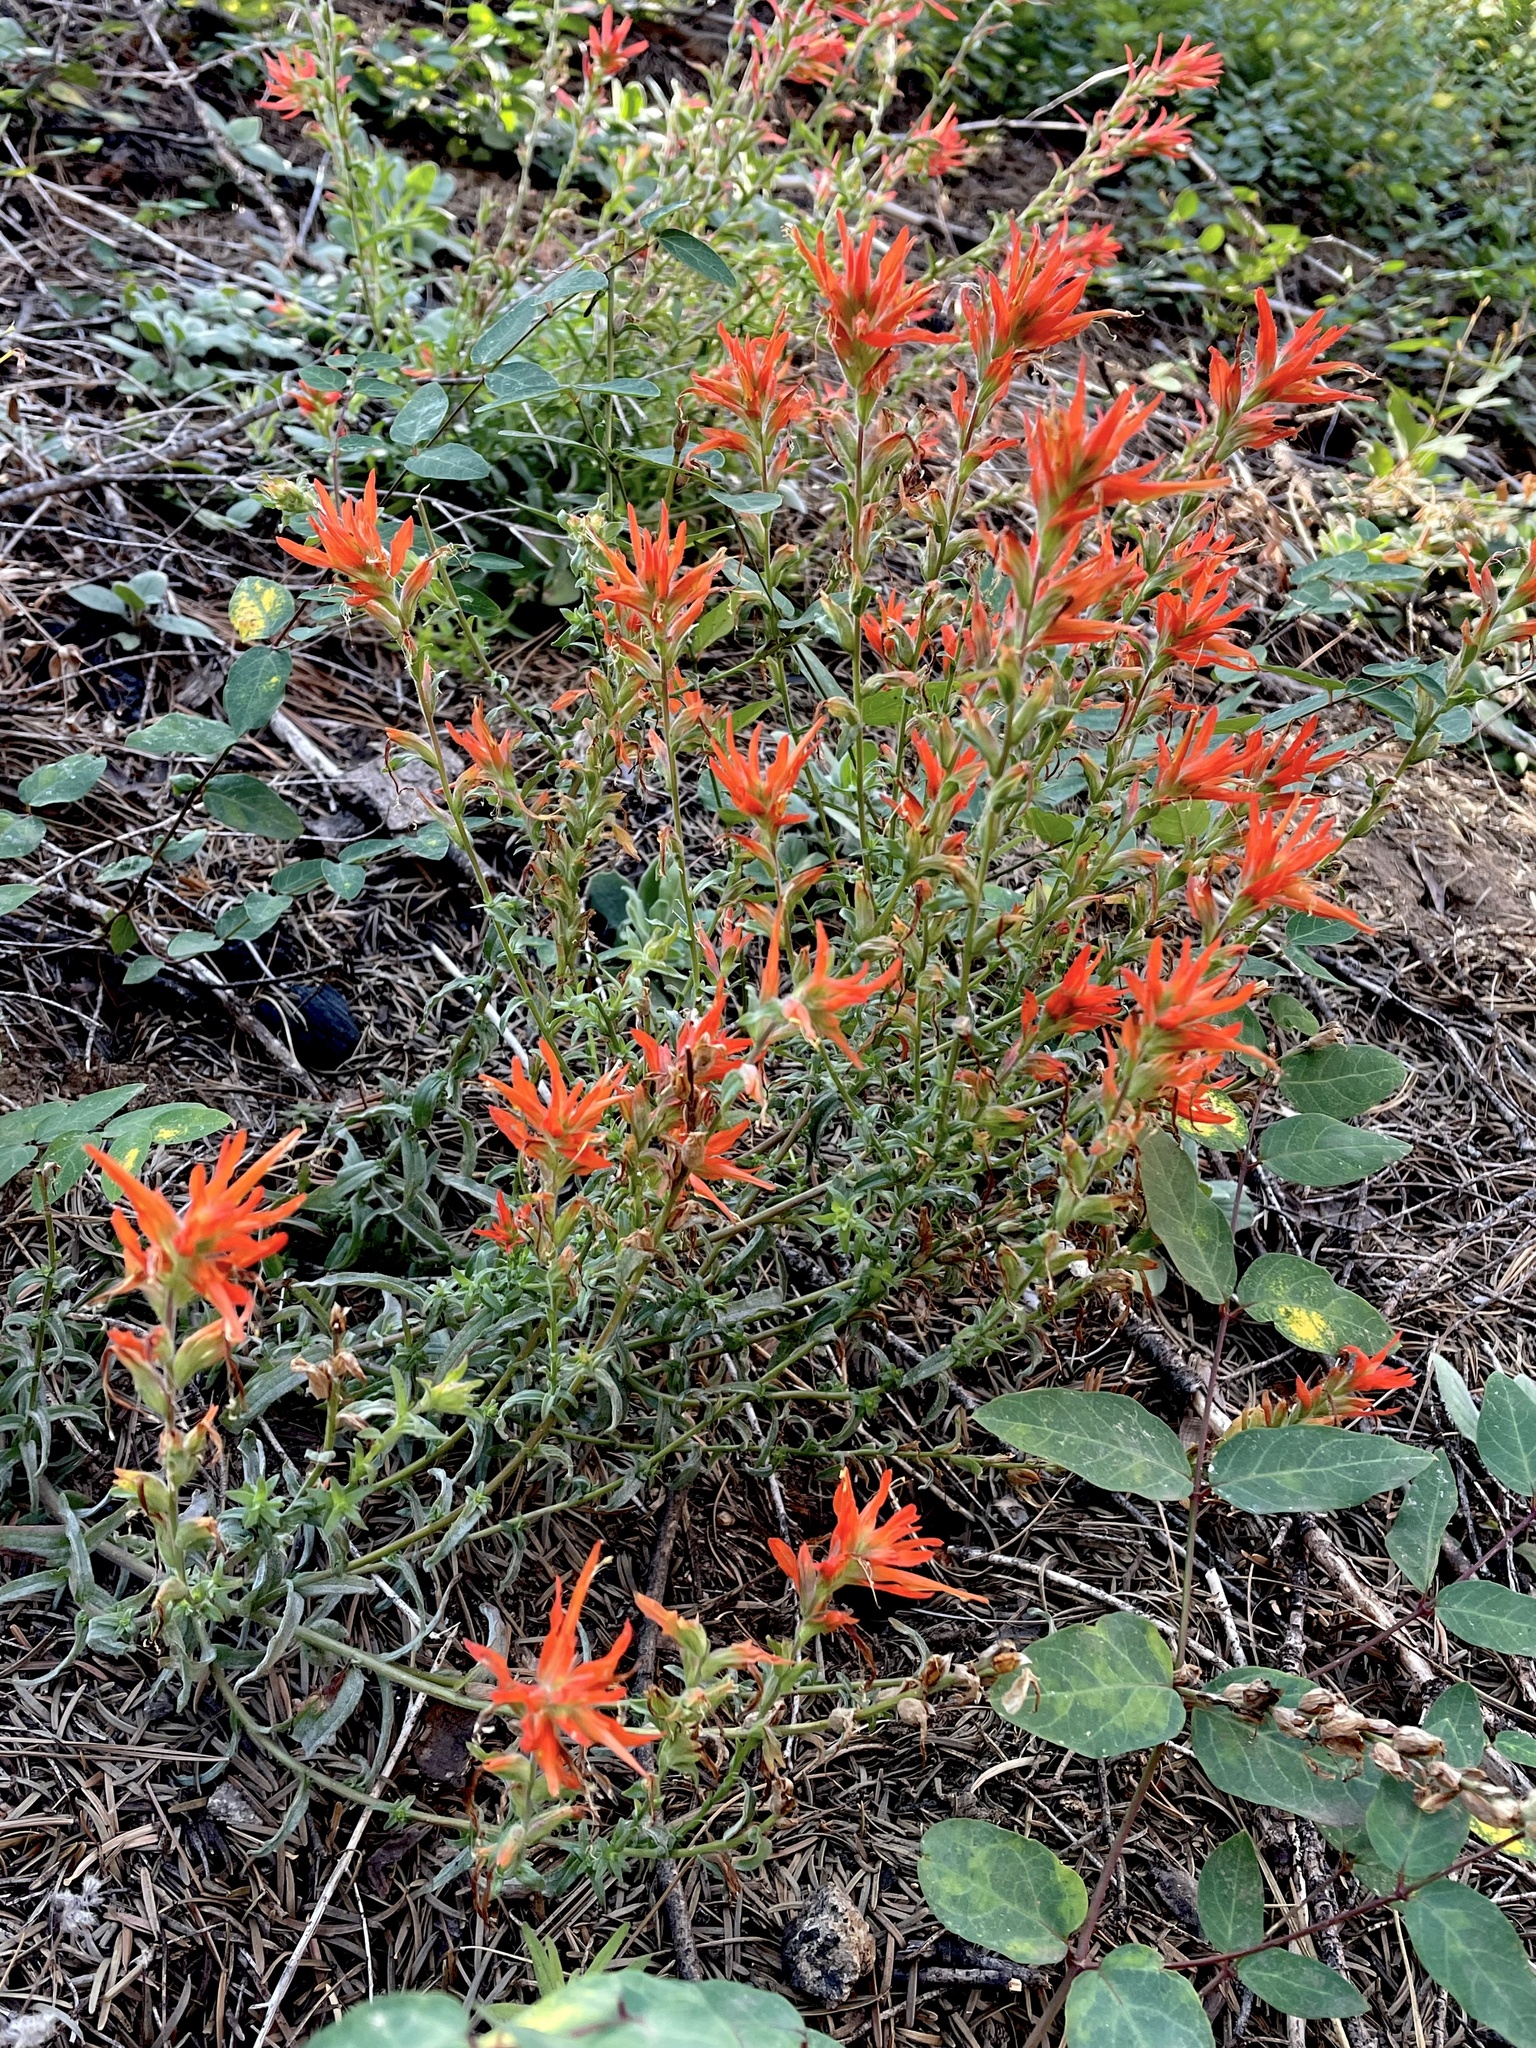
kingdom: Plantae
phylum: Tracheophyta
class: Magnoliopsida
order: Lamiales
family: Orobanchaceae
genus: Castilleja
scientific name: Castilleja disticha
